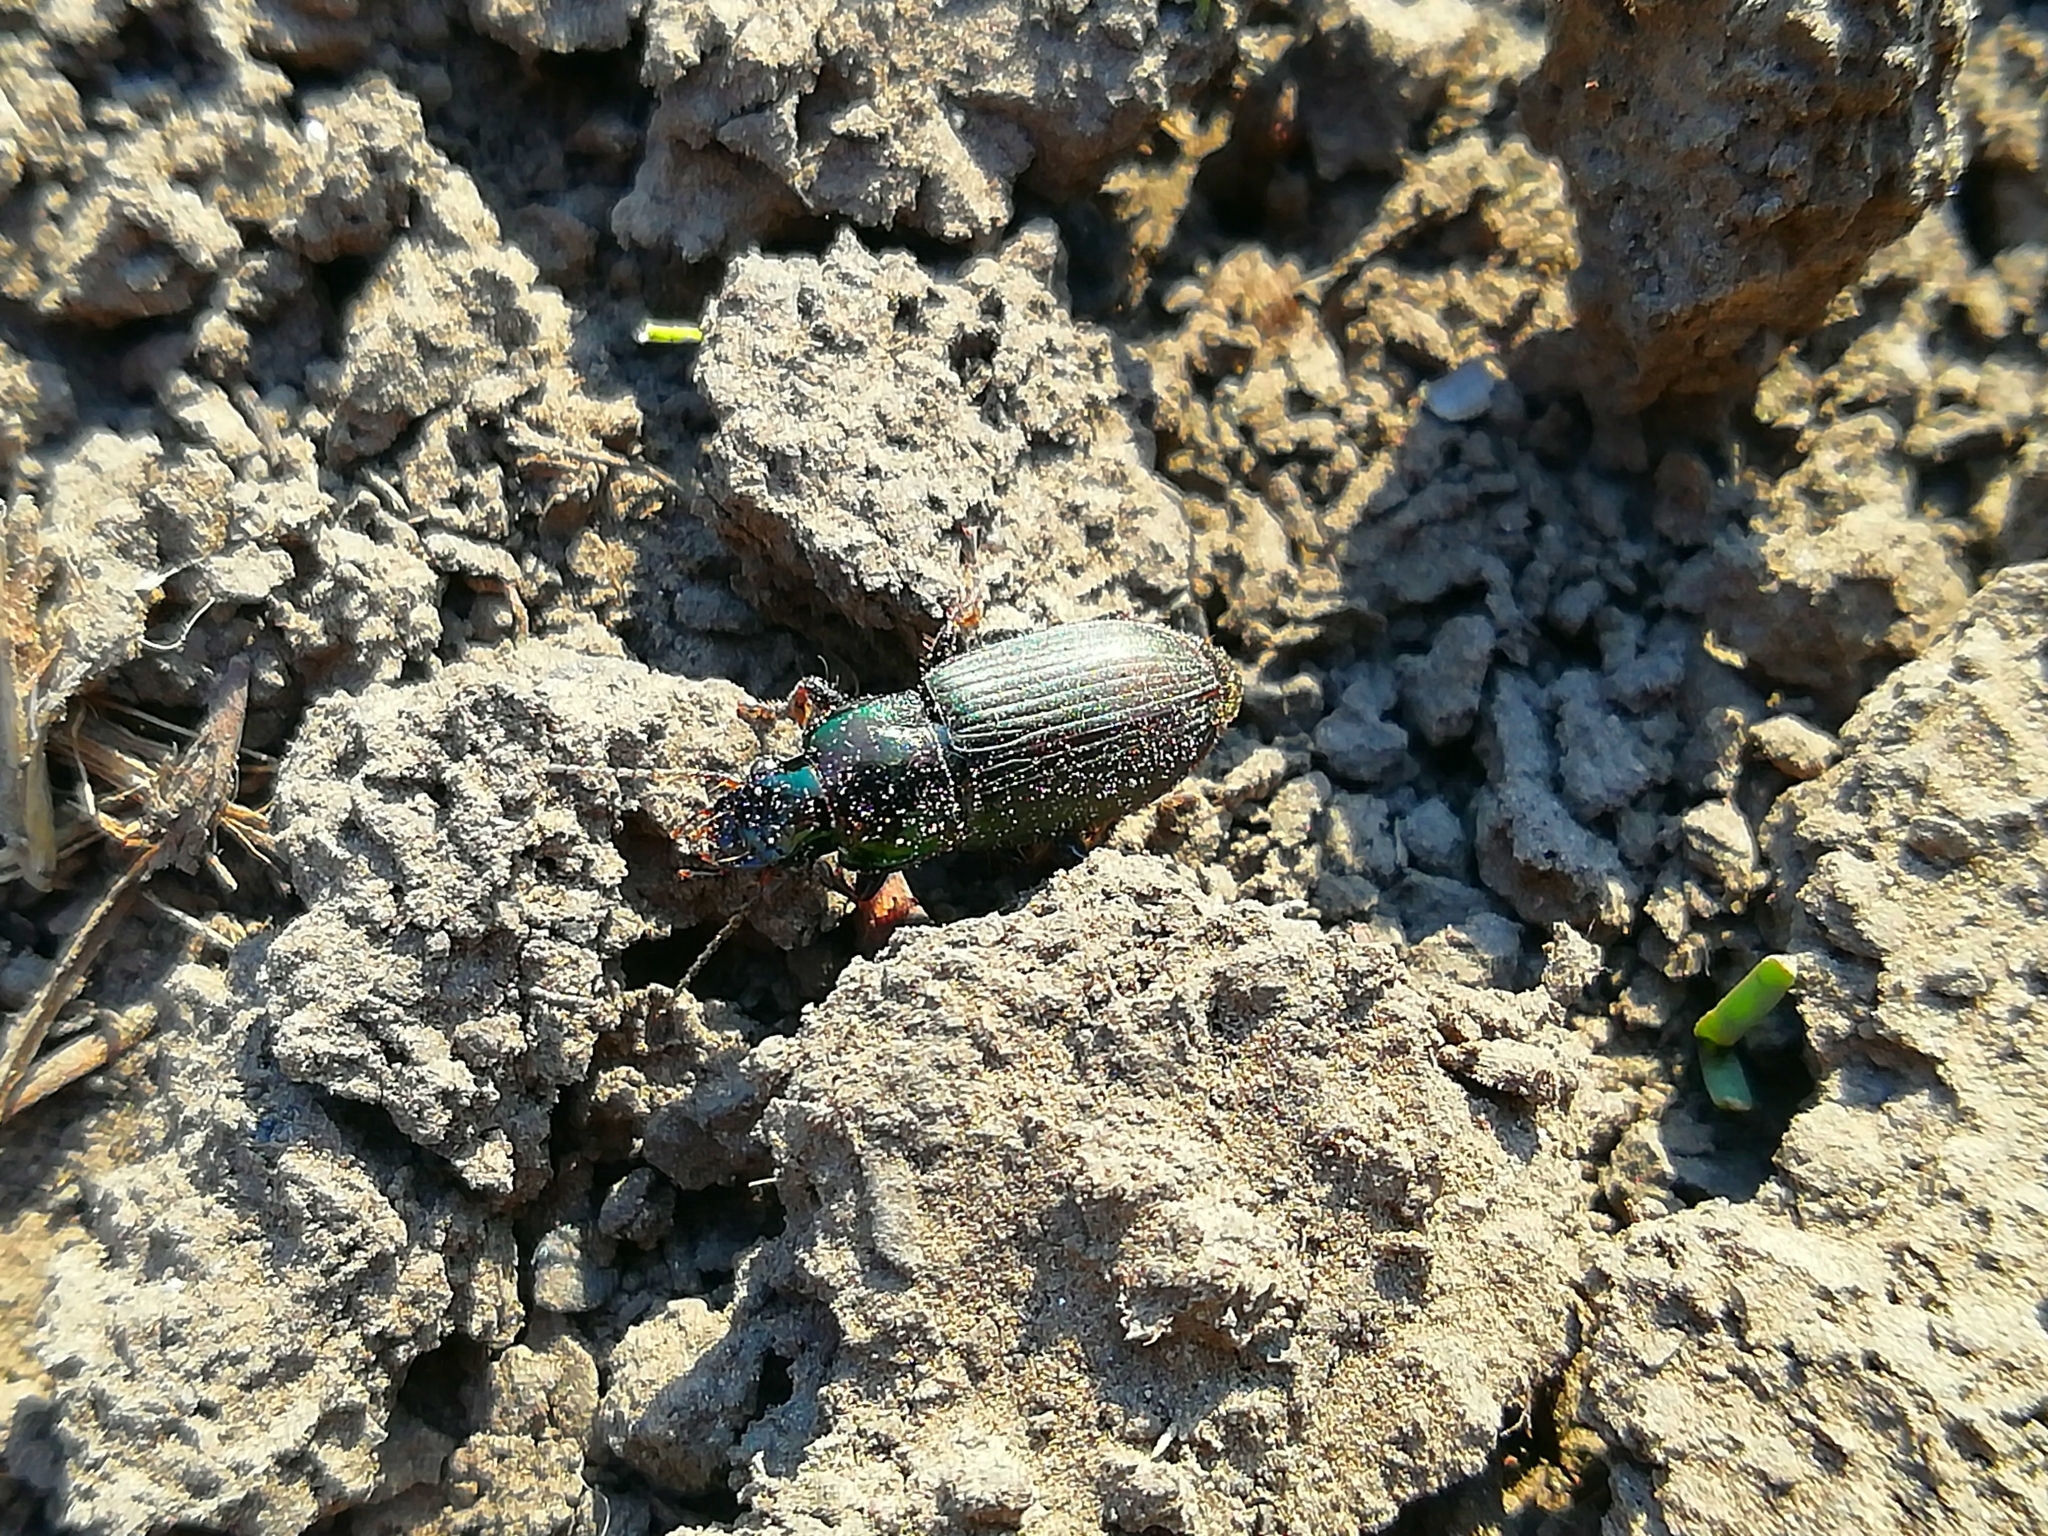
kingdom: Animalia
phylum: Arthropoda
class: Insecta
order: Coleoptera
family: Carabidae
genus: Harpalus
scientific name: Harpalus affinis
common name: Polychrome harp ground beetle
